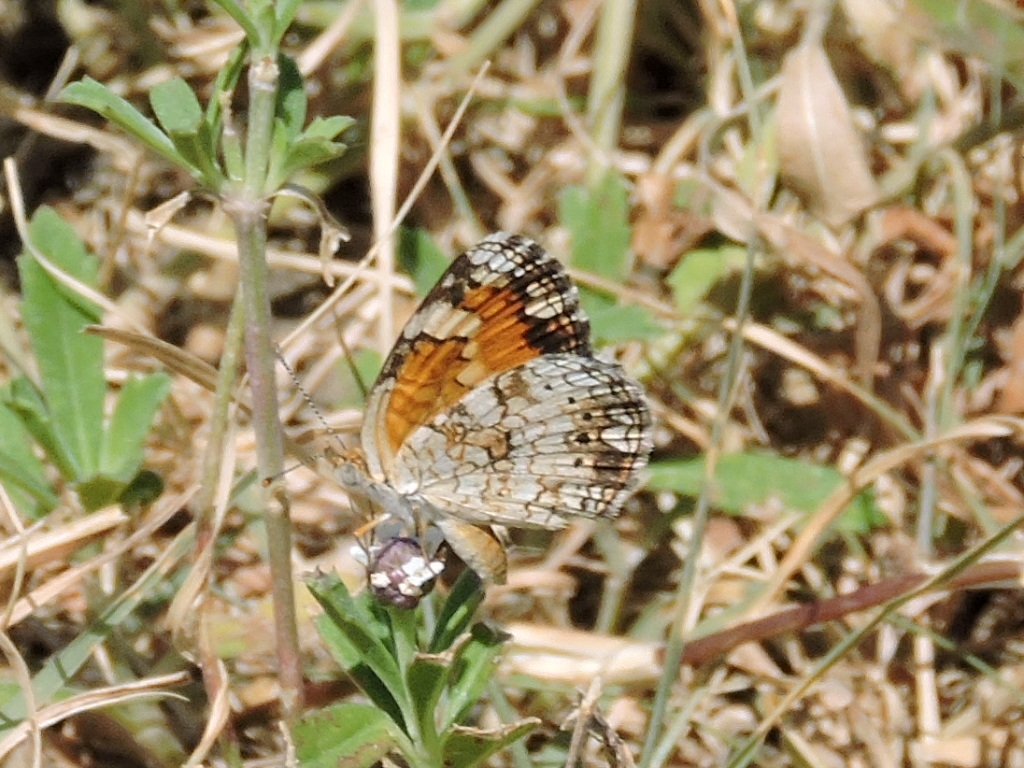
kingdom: Animalia
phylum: Arthropoda
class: Insecta
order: Lepidoptera
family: Nymphalidae
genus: Phyciodes
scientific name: Phyciodes phaon
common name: Phaon crescent
